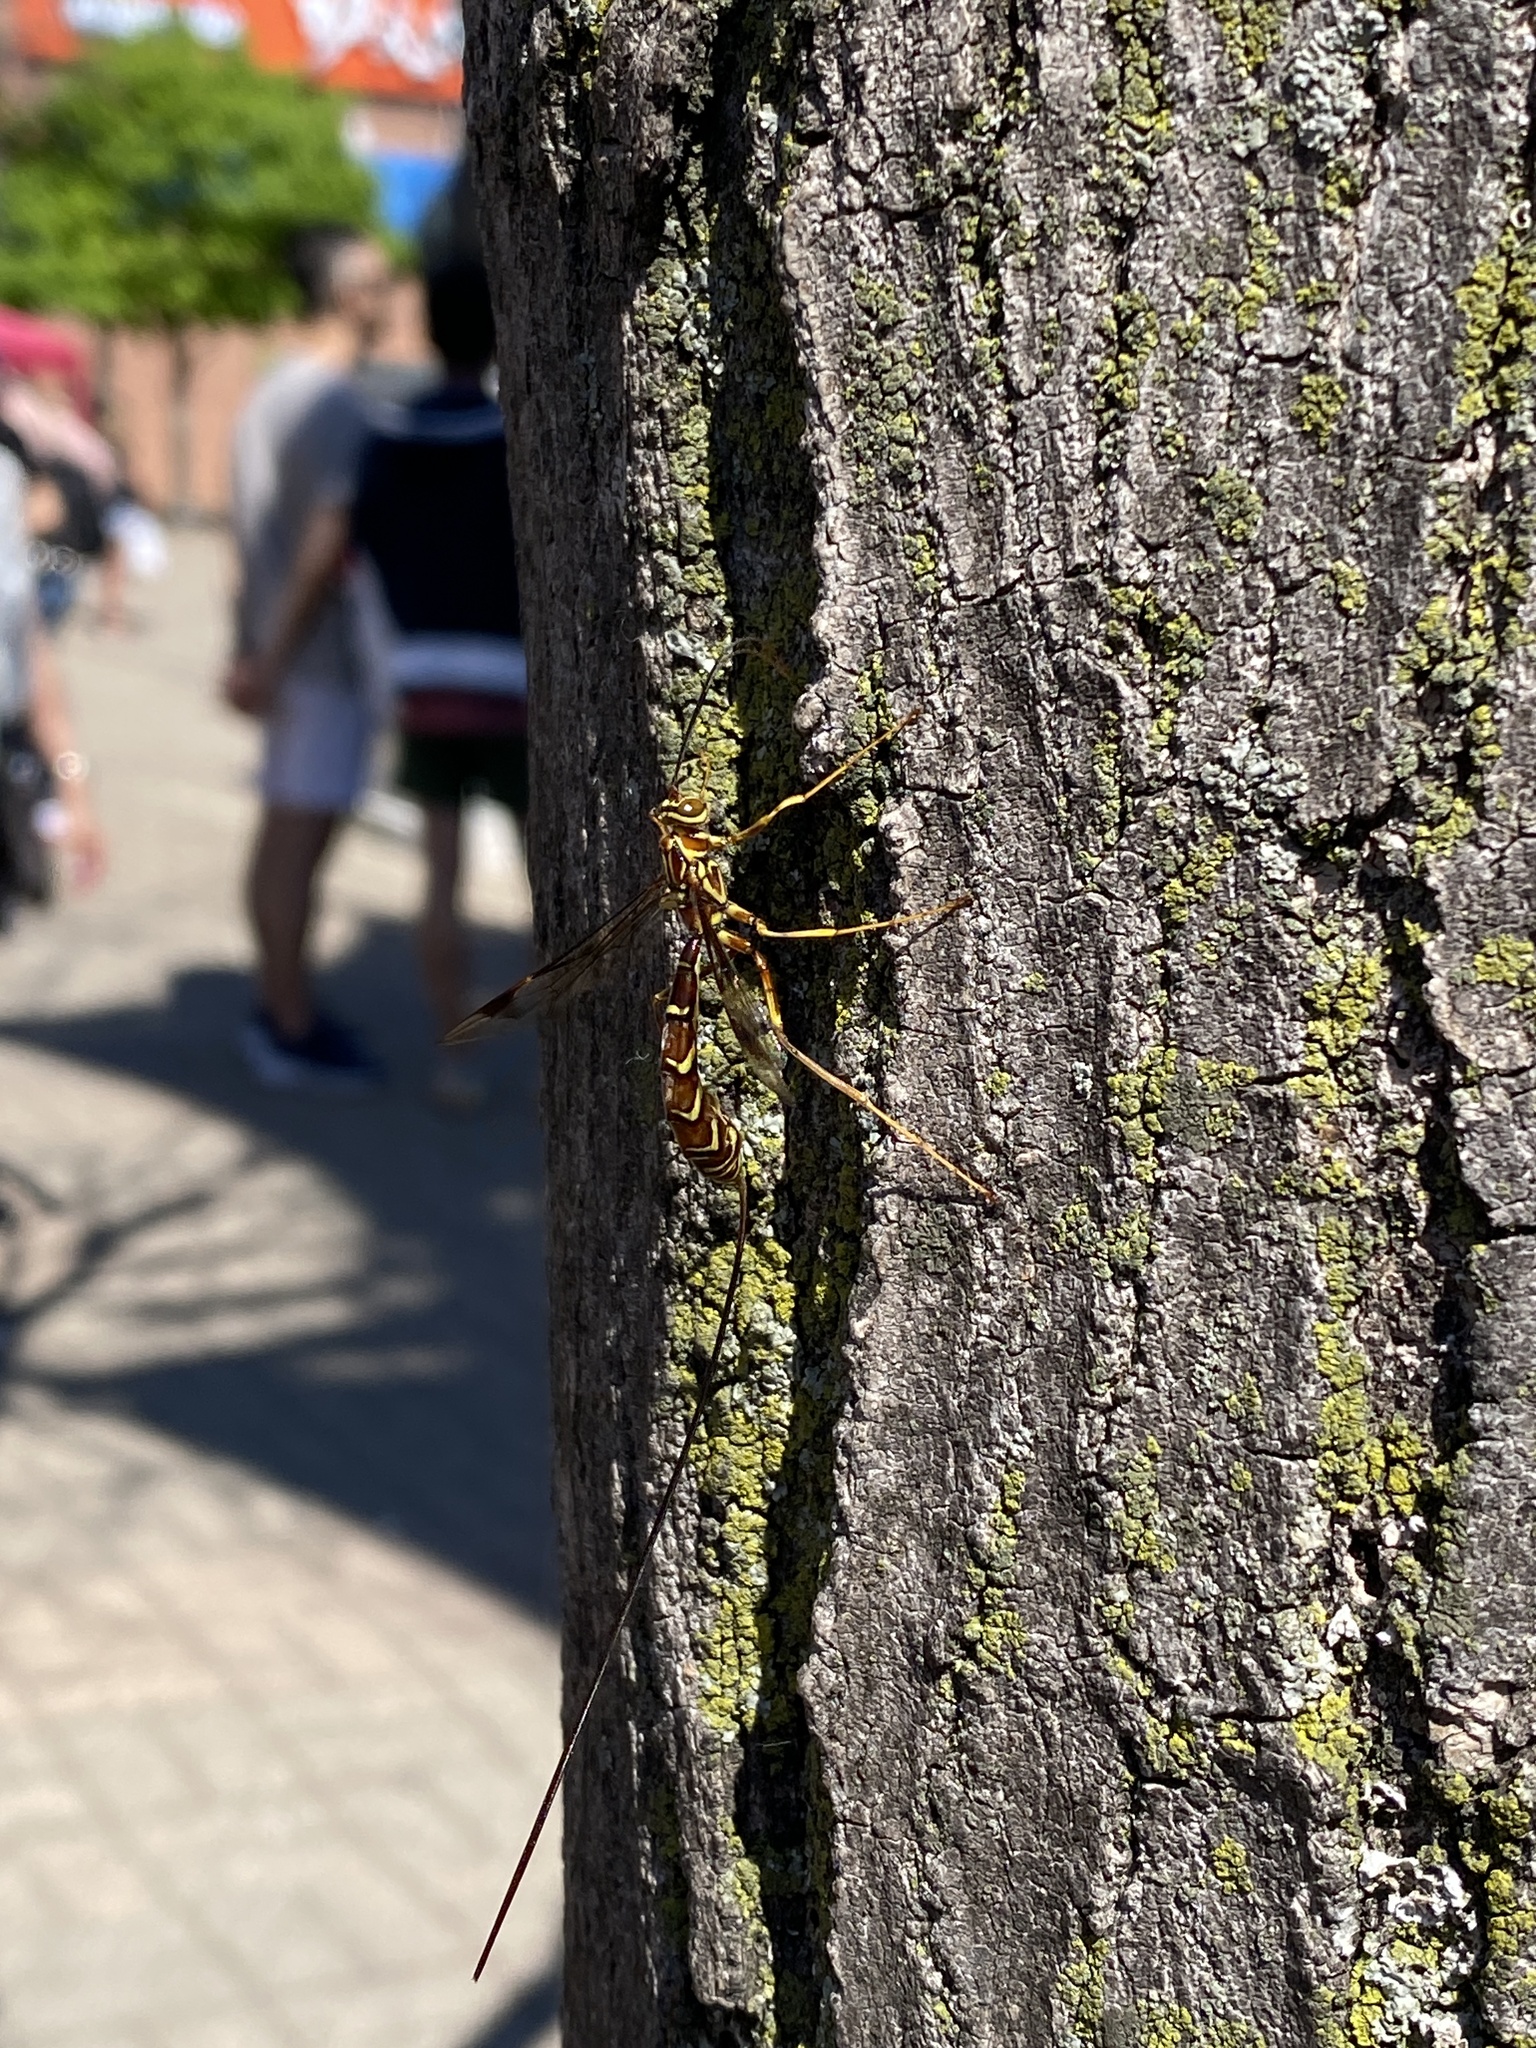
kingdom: Animalia
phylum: Arthropoda
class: Insecta
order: Hymenoptera
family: Ichneumonidae
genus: Megarhyssa
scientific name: Megarhyssa macrura
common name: Long-tailed giant ichneumonid wasp
